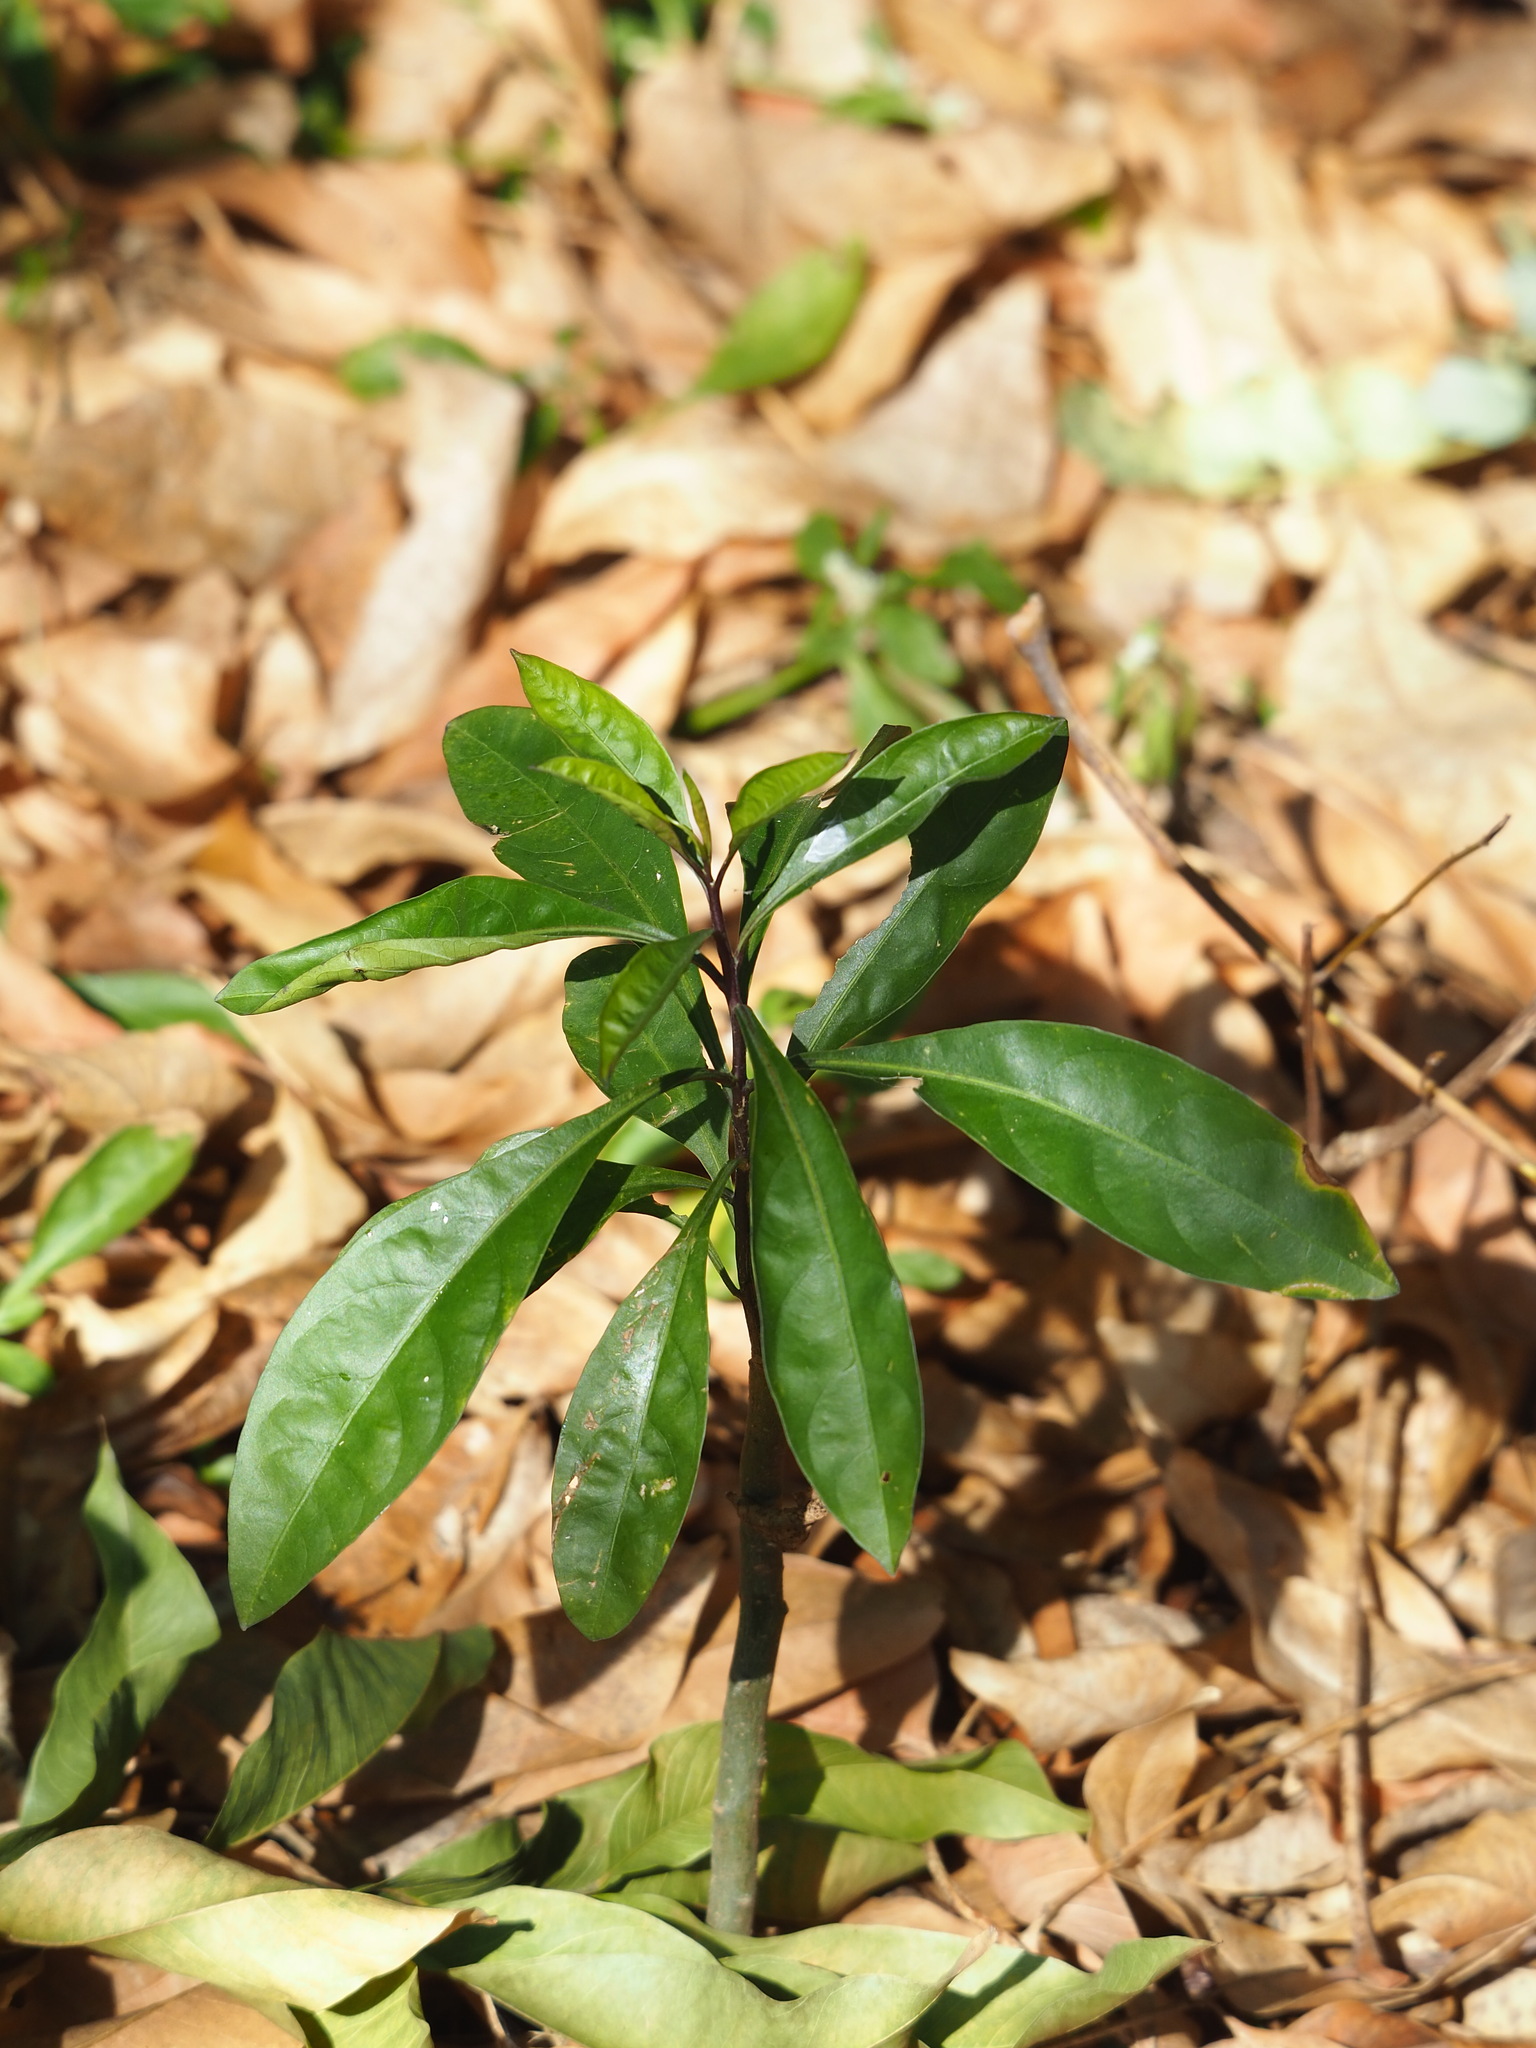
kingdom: Plantae
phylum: Tracheophyta
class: Magnoliopsida
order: Solanales
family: Solanaceae
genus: Solanum
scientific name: Solanum diphyllum
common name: Twoleaf nightshade
